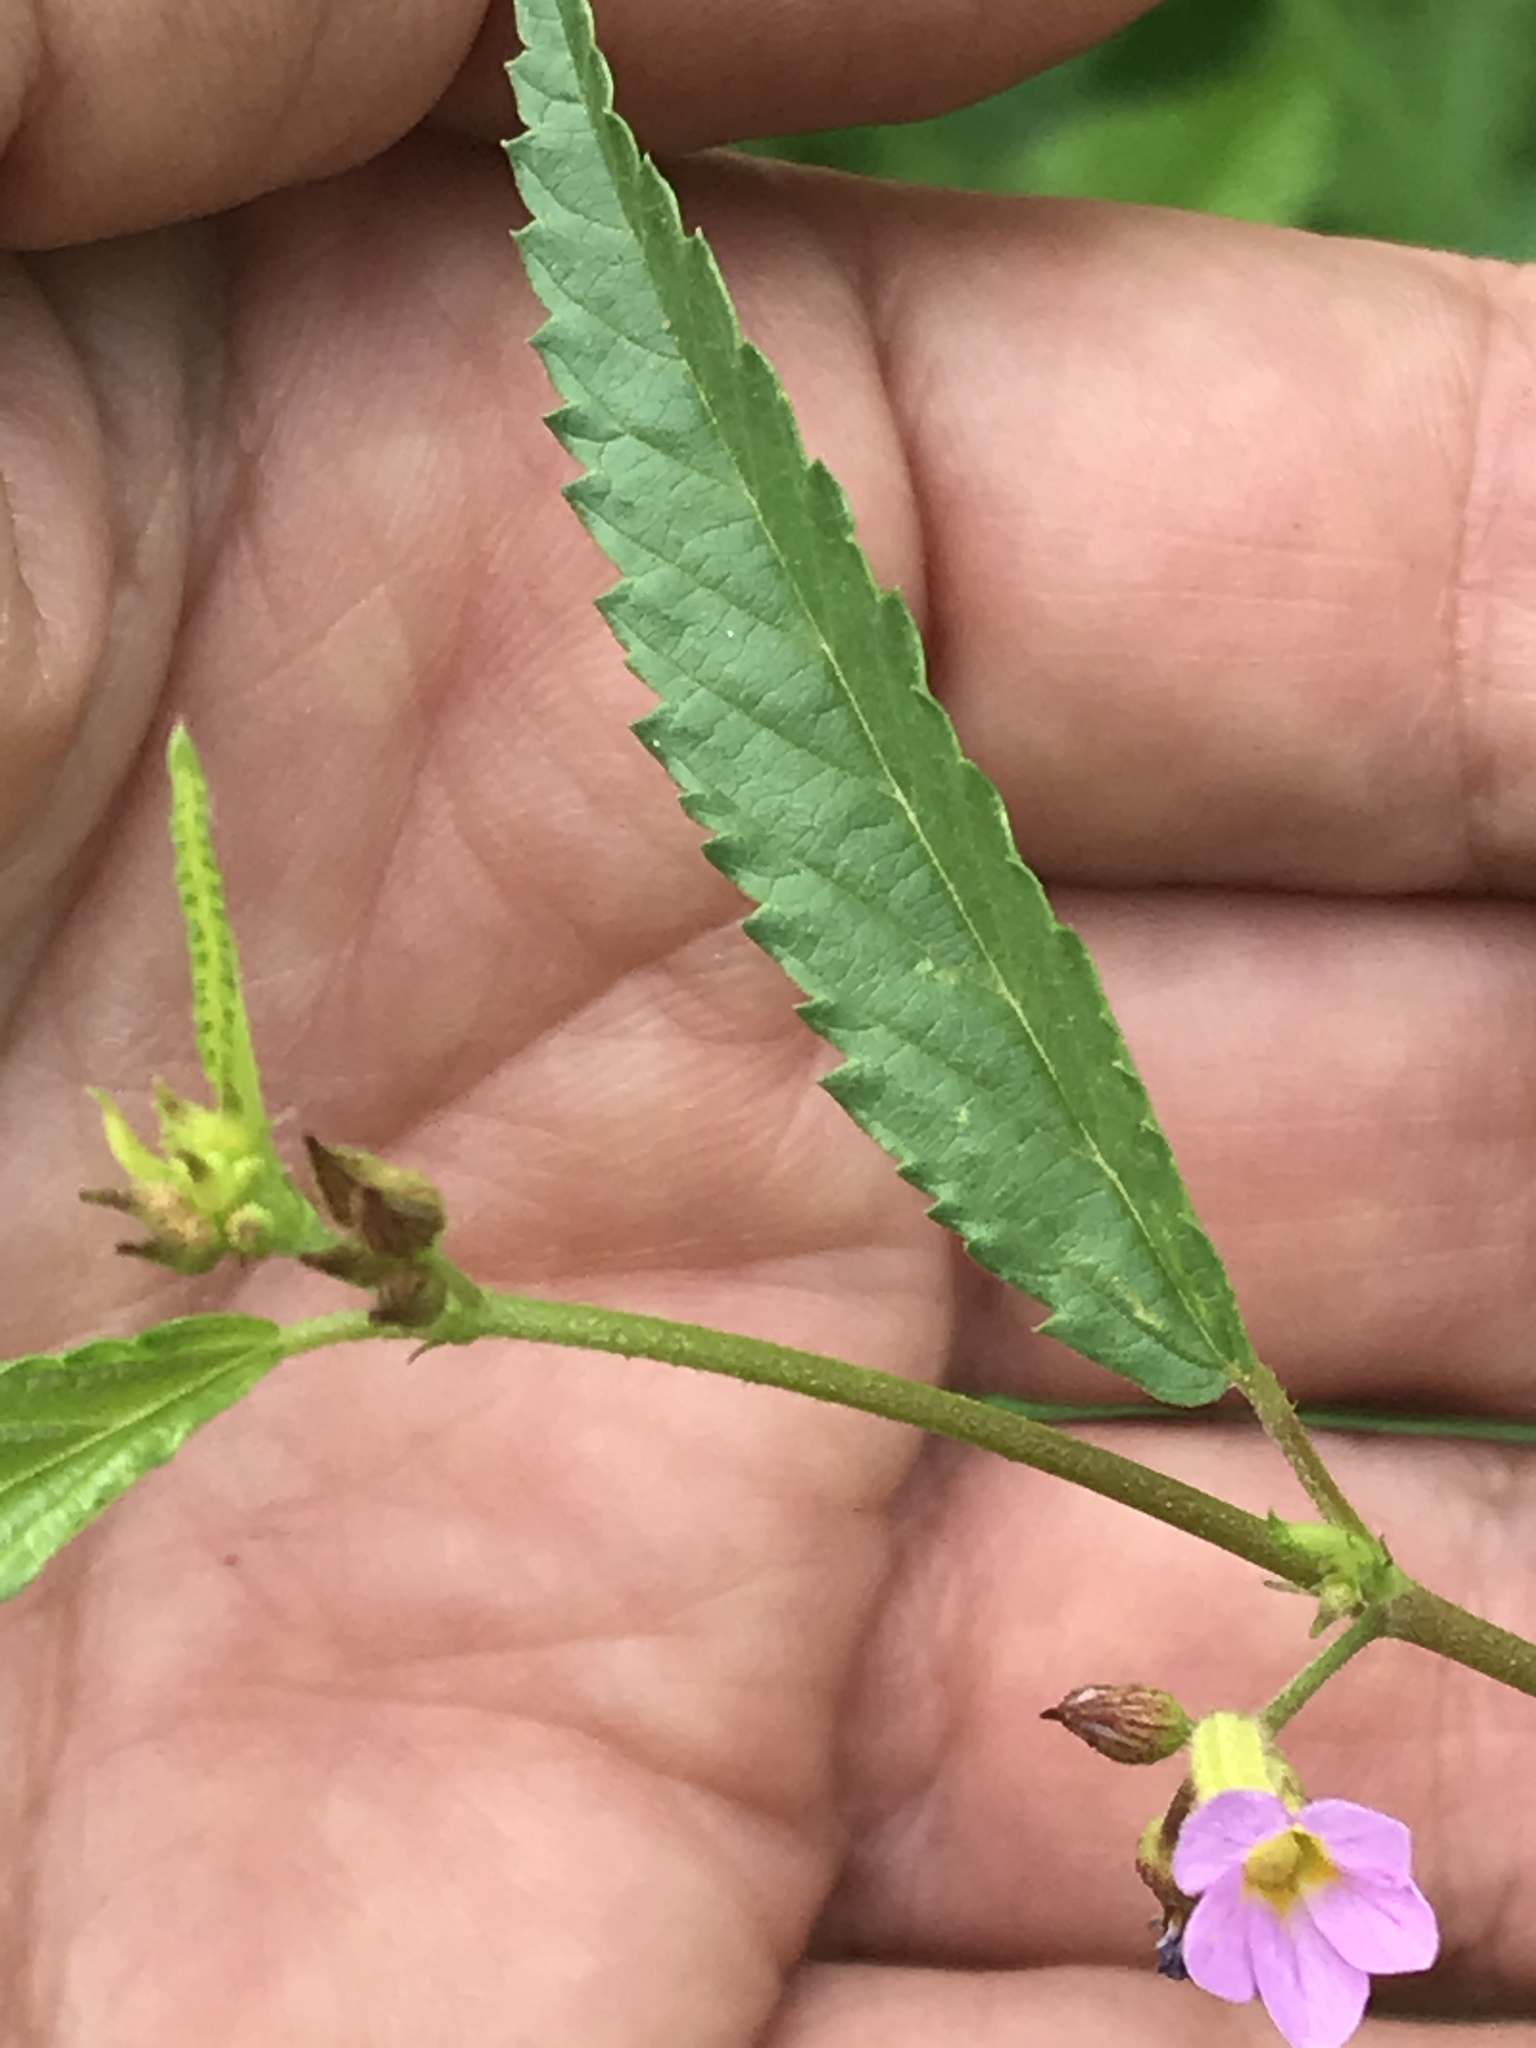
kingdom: Plantae
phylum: Tracheophyta
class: Magnoliopsida
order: Malvales
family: Malvaceae
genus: Melochia
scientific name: Melochia pyramidata
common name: Pyramidflower
